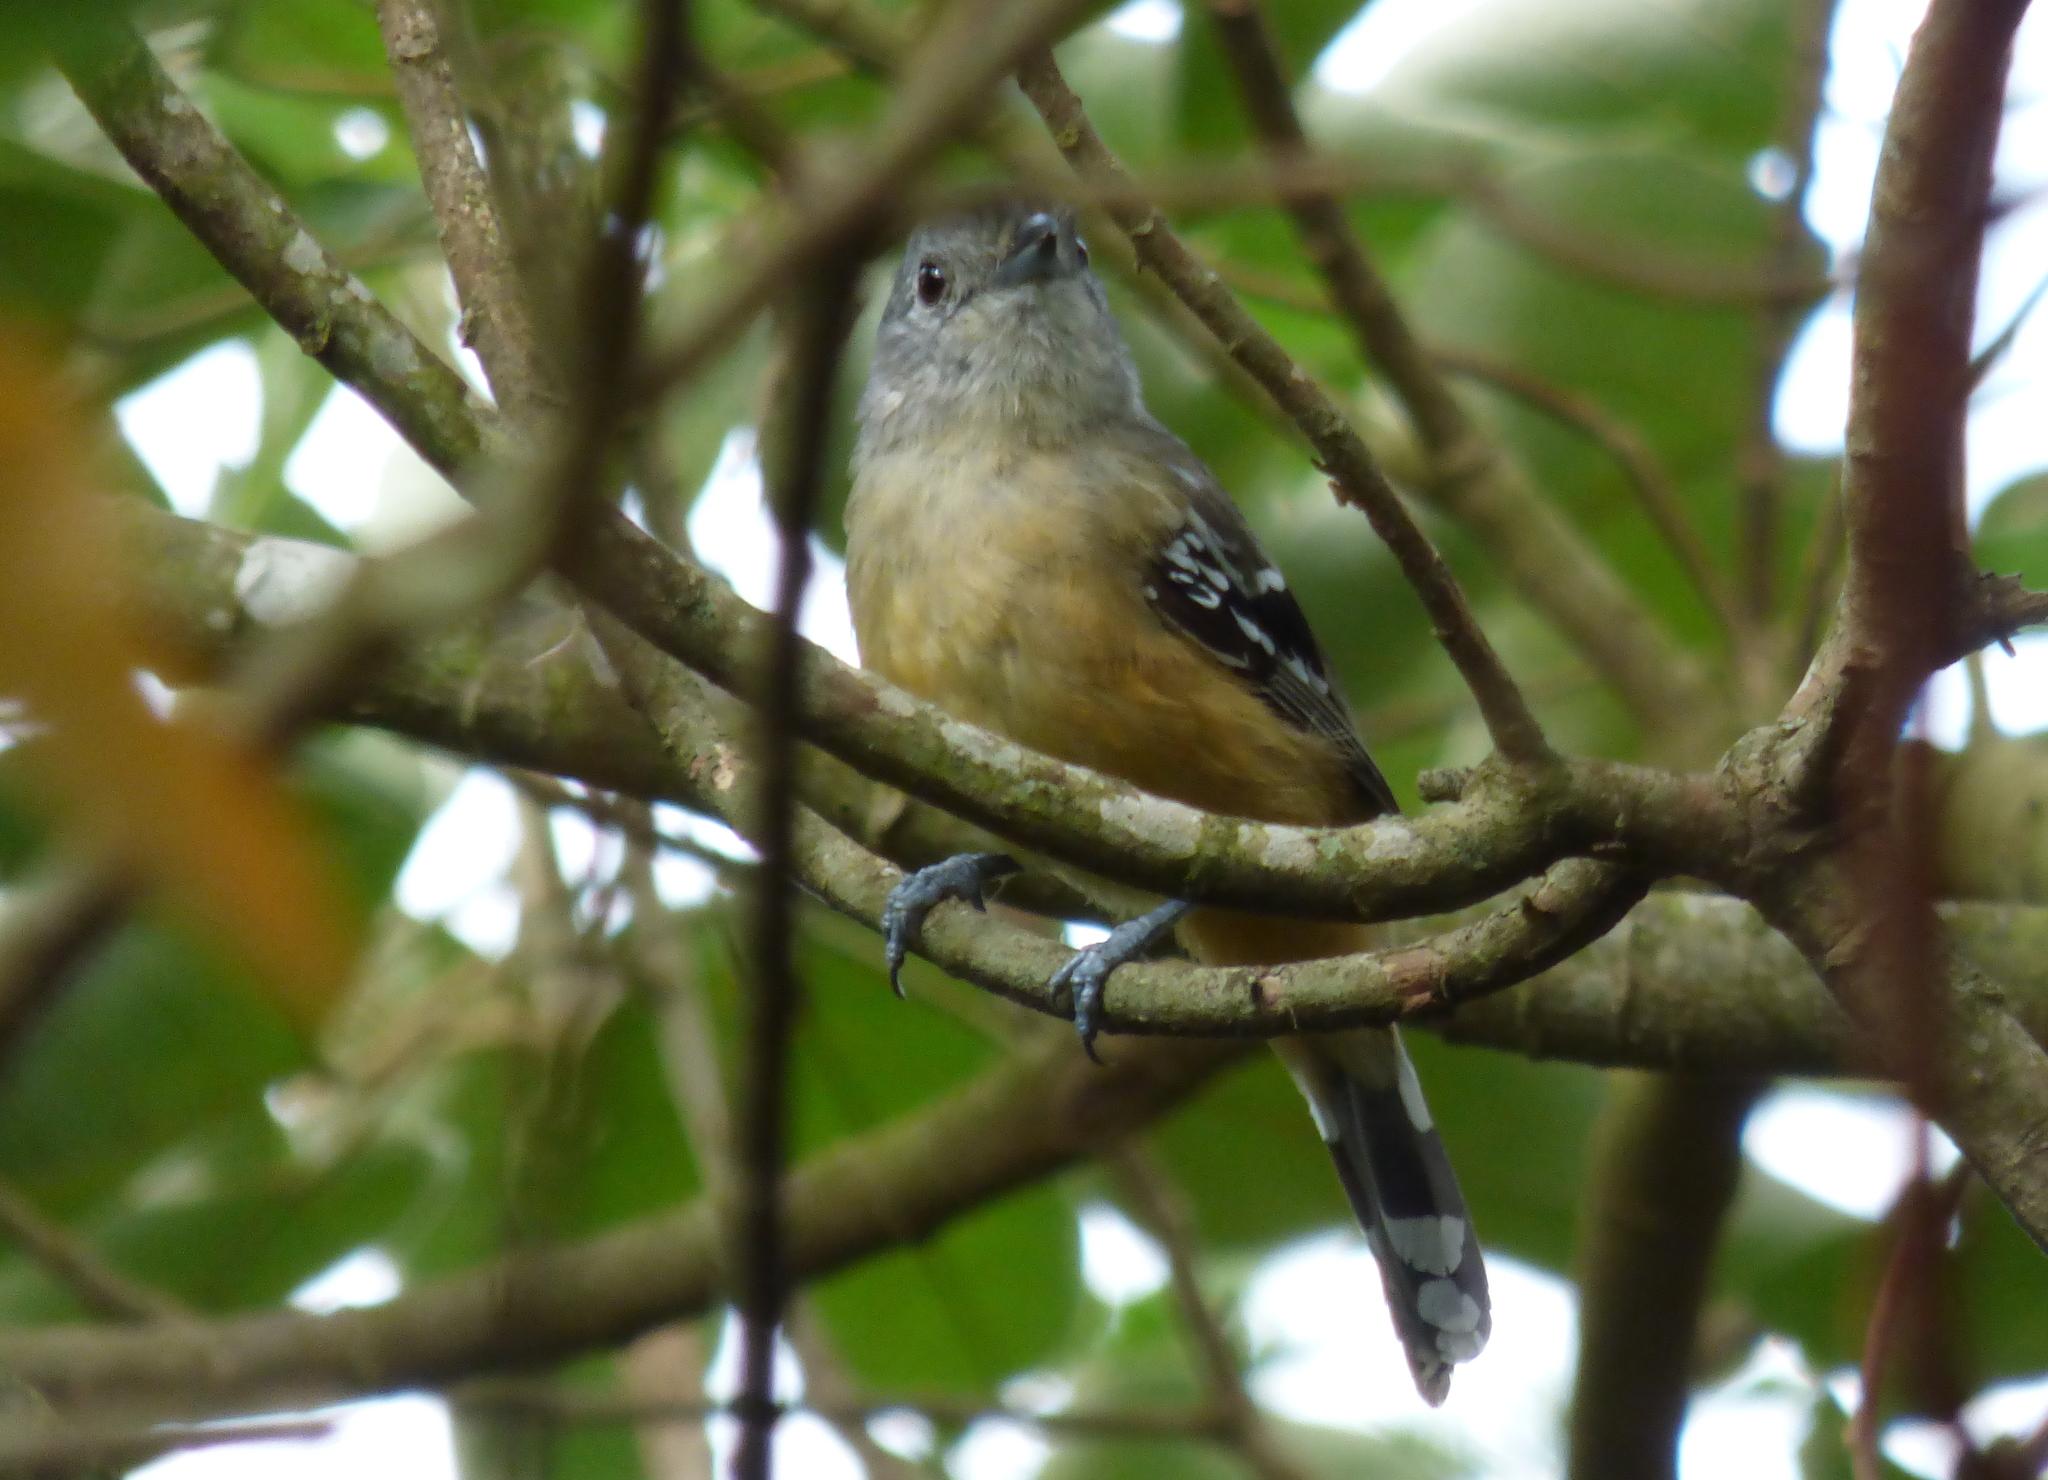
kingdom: Animalia
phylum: Chordata
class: Aves
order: Passeriformes
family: Thamnophilidae
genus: Thamnophilus
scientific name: Thamnophilus caerulescens
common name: Variable antshrike
